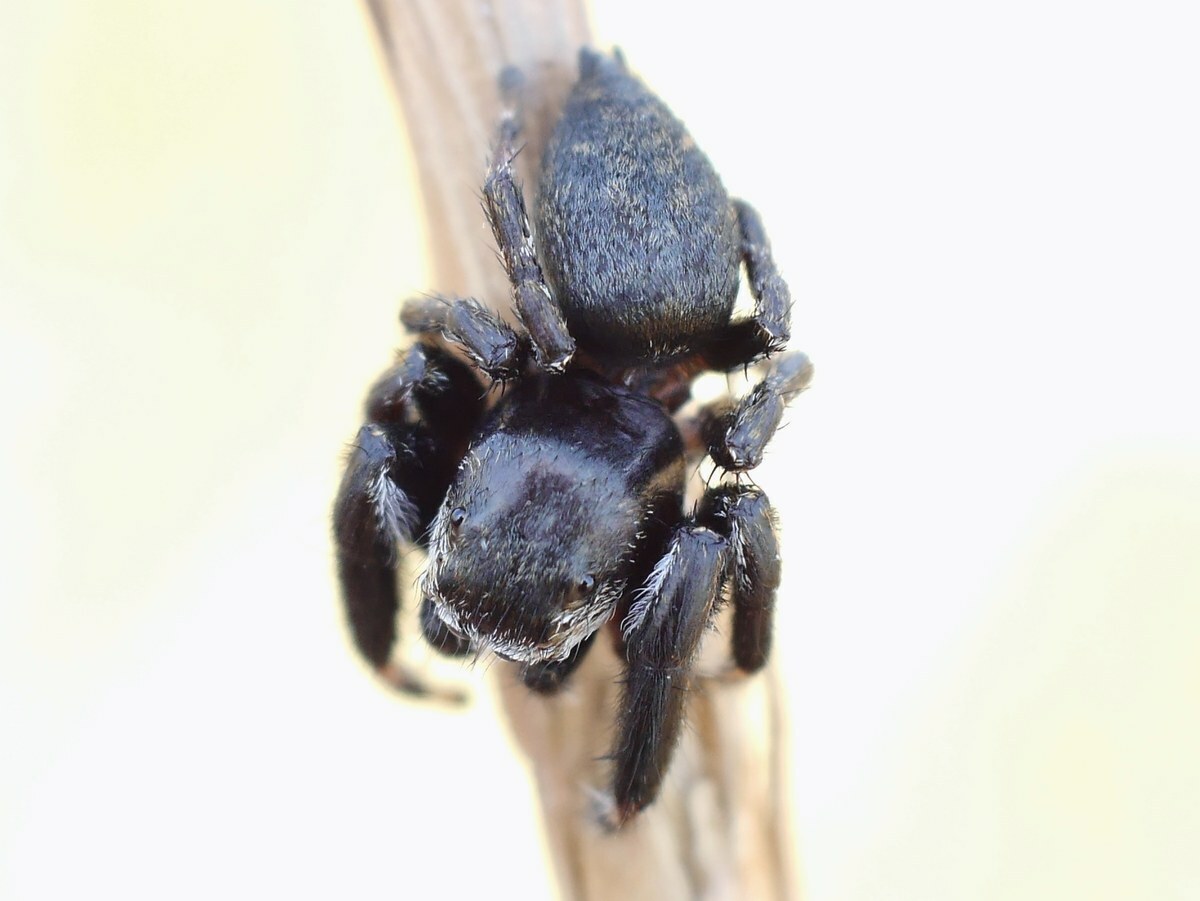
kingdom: Animalia
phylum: Arthropoda
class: Arachnida
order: Araneae
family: Salticidae
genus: Evarcha
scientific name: Evarcha arcuata
